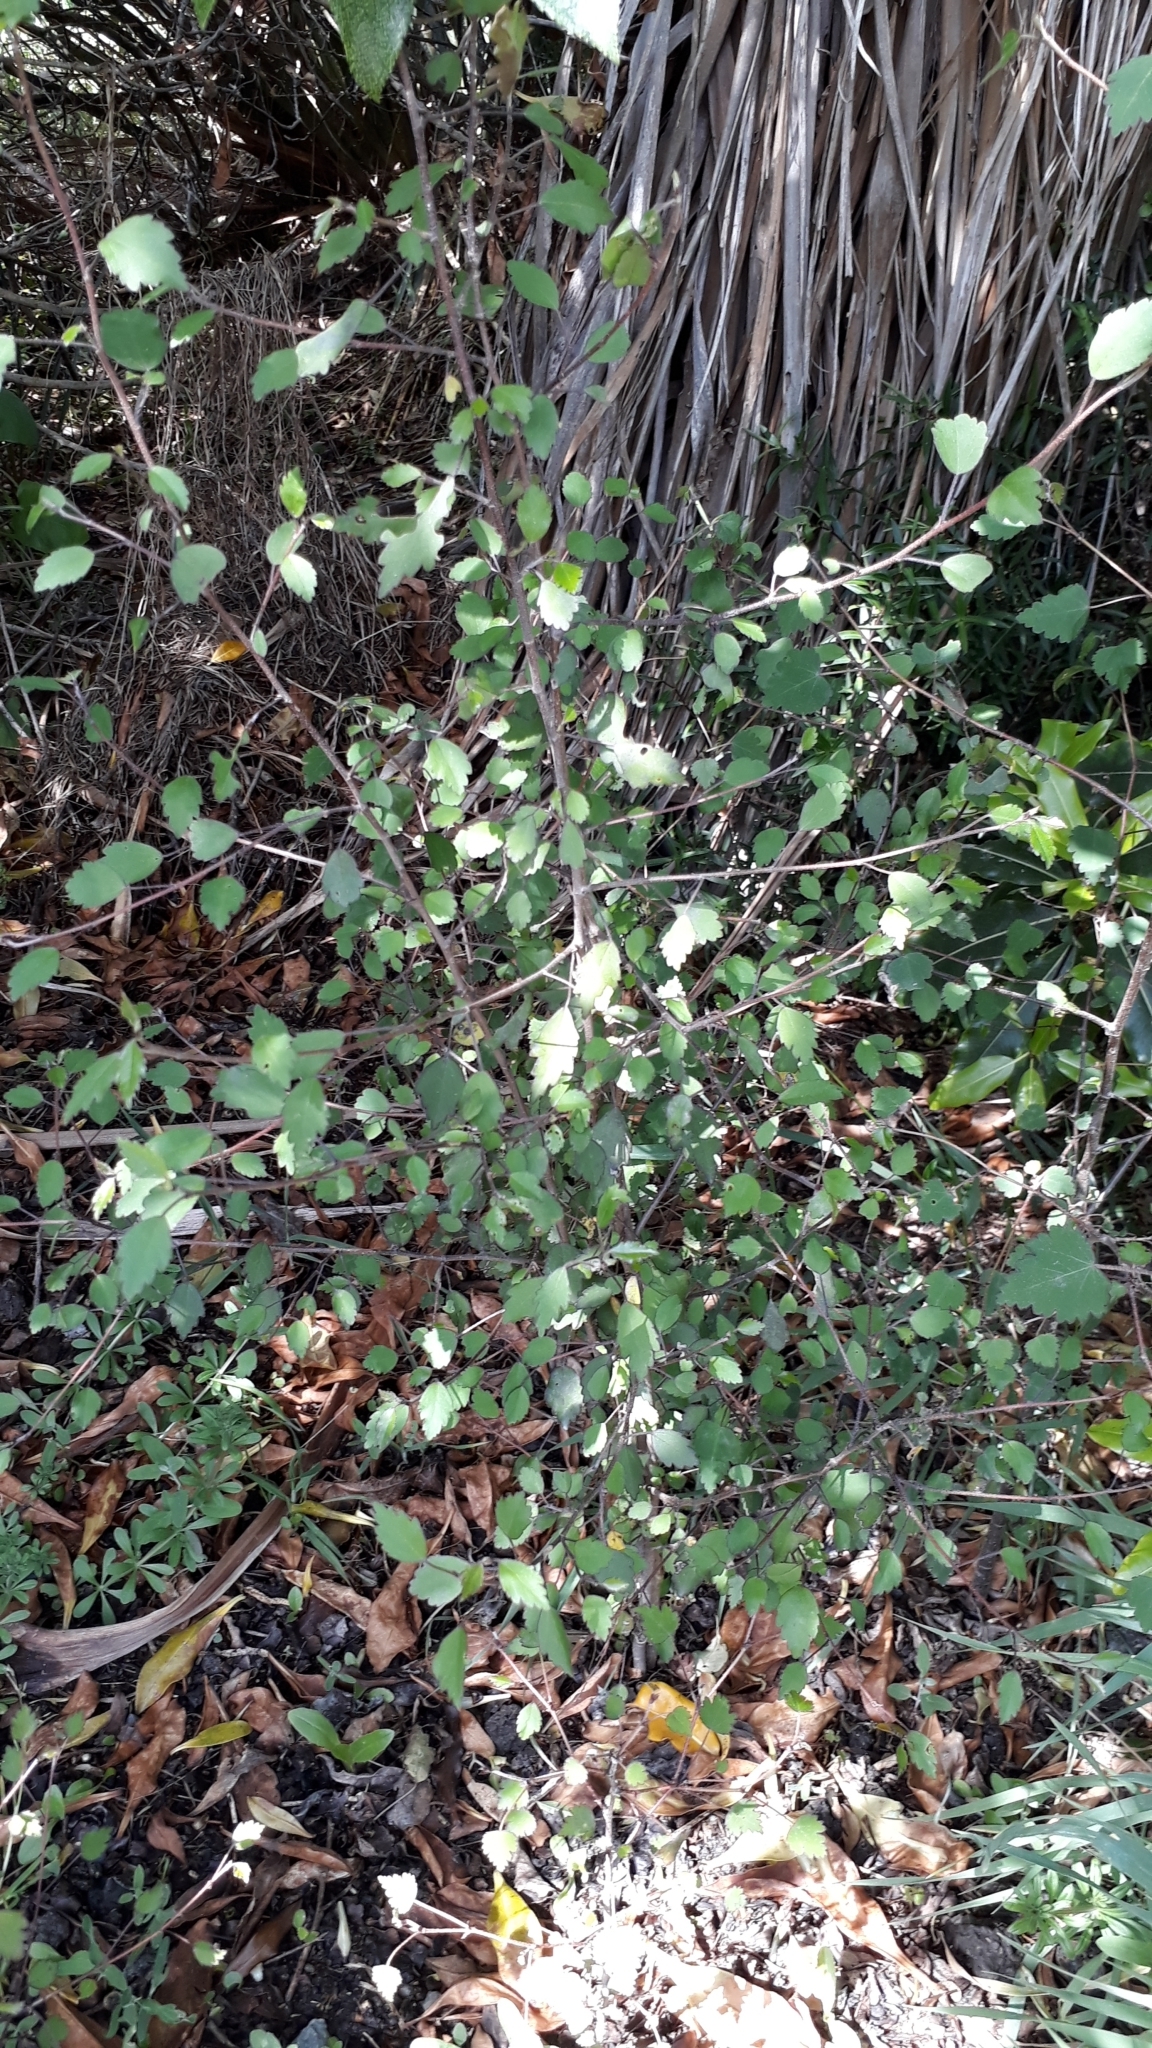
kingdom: Plantae
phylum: Tracheophyta
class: Magnoliopsida
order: Malvales
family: Malvaceae
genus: Plagianthus
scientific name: Plagianthus regius
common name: Manatu
